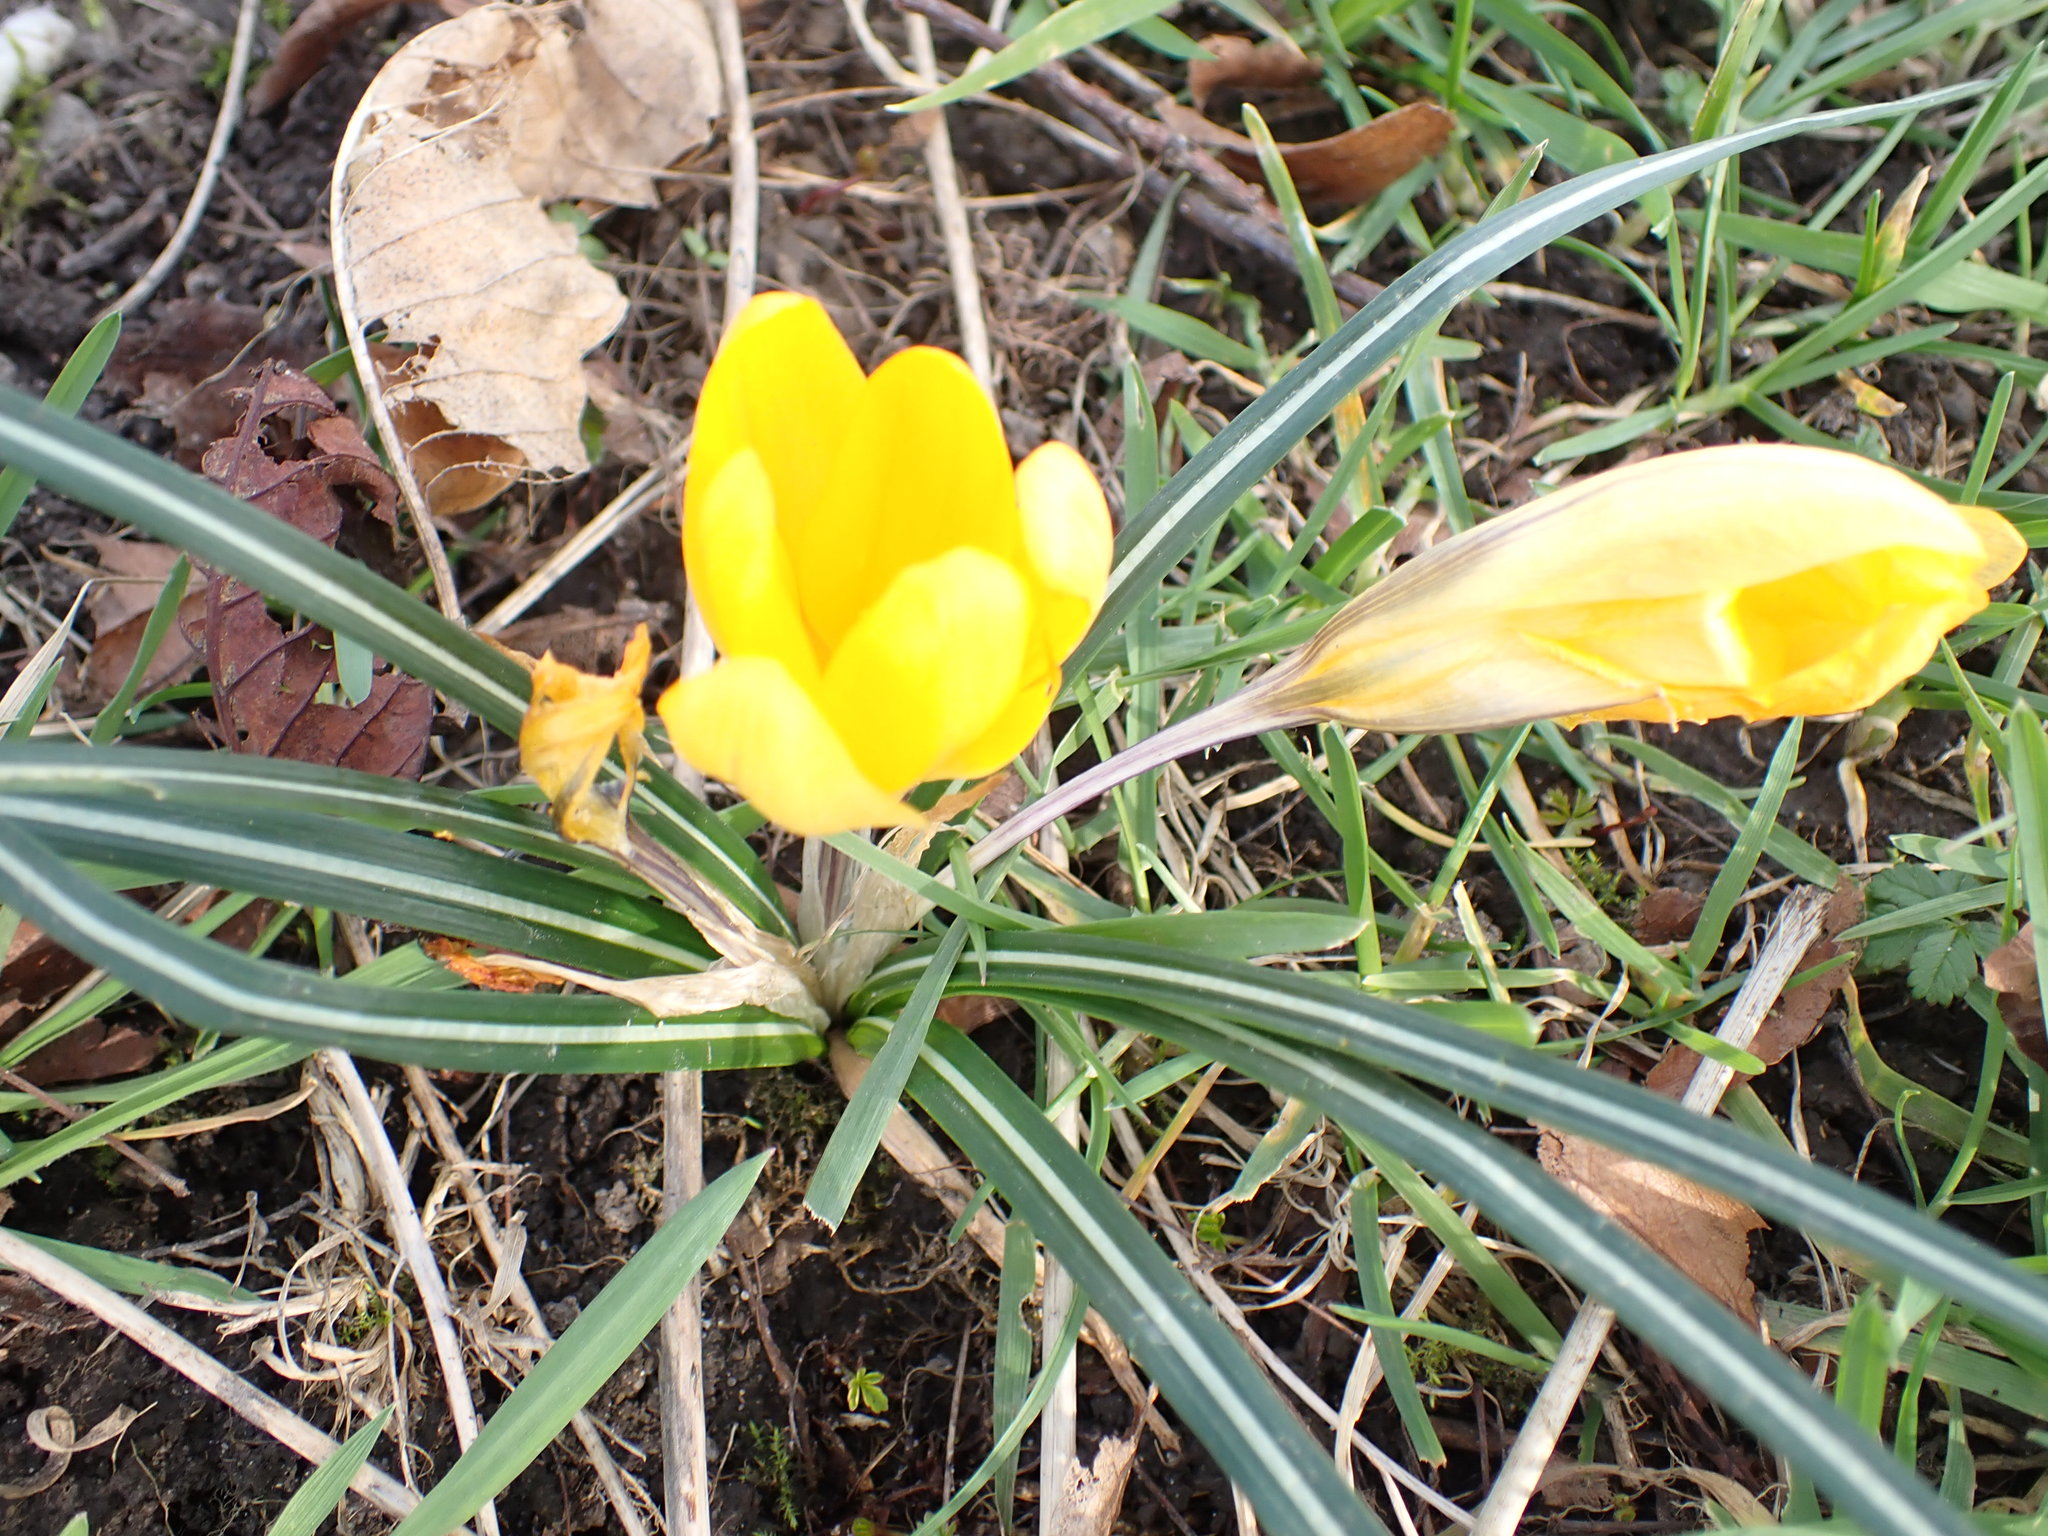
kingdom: Plantae
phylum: Tracheophyta
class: Liliopsida
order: Asparagales
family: Iridaceae
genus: Crocus
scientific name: Crocus luteus
